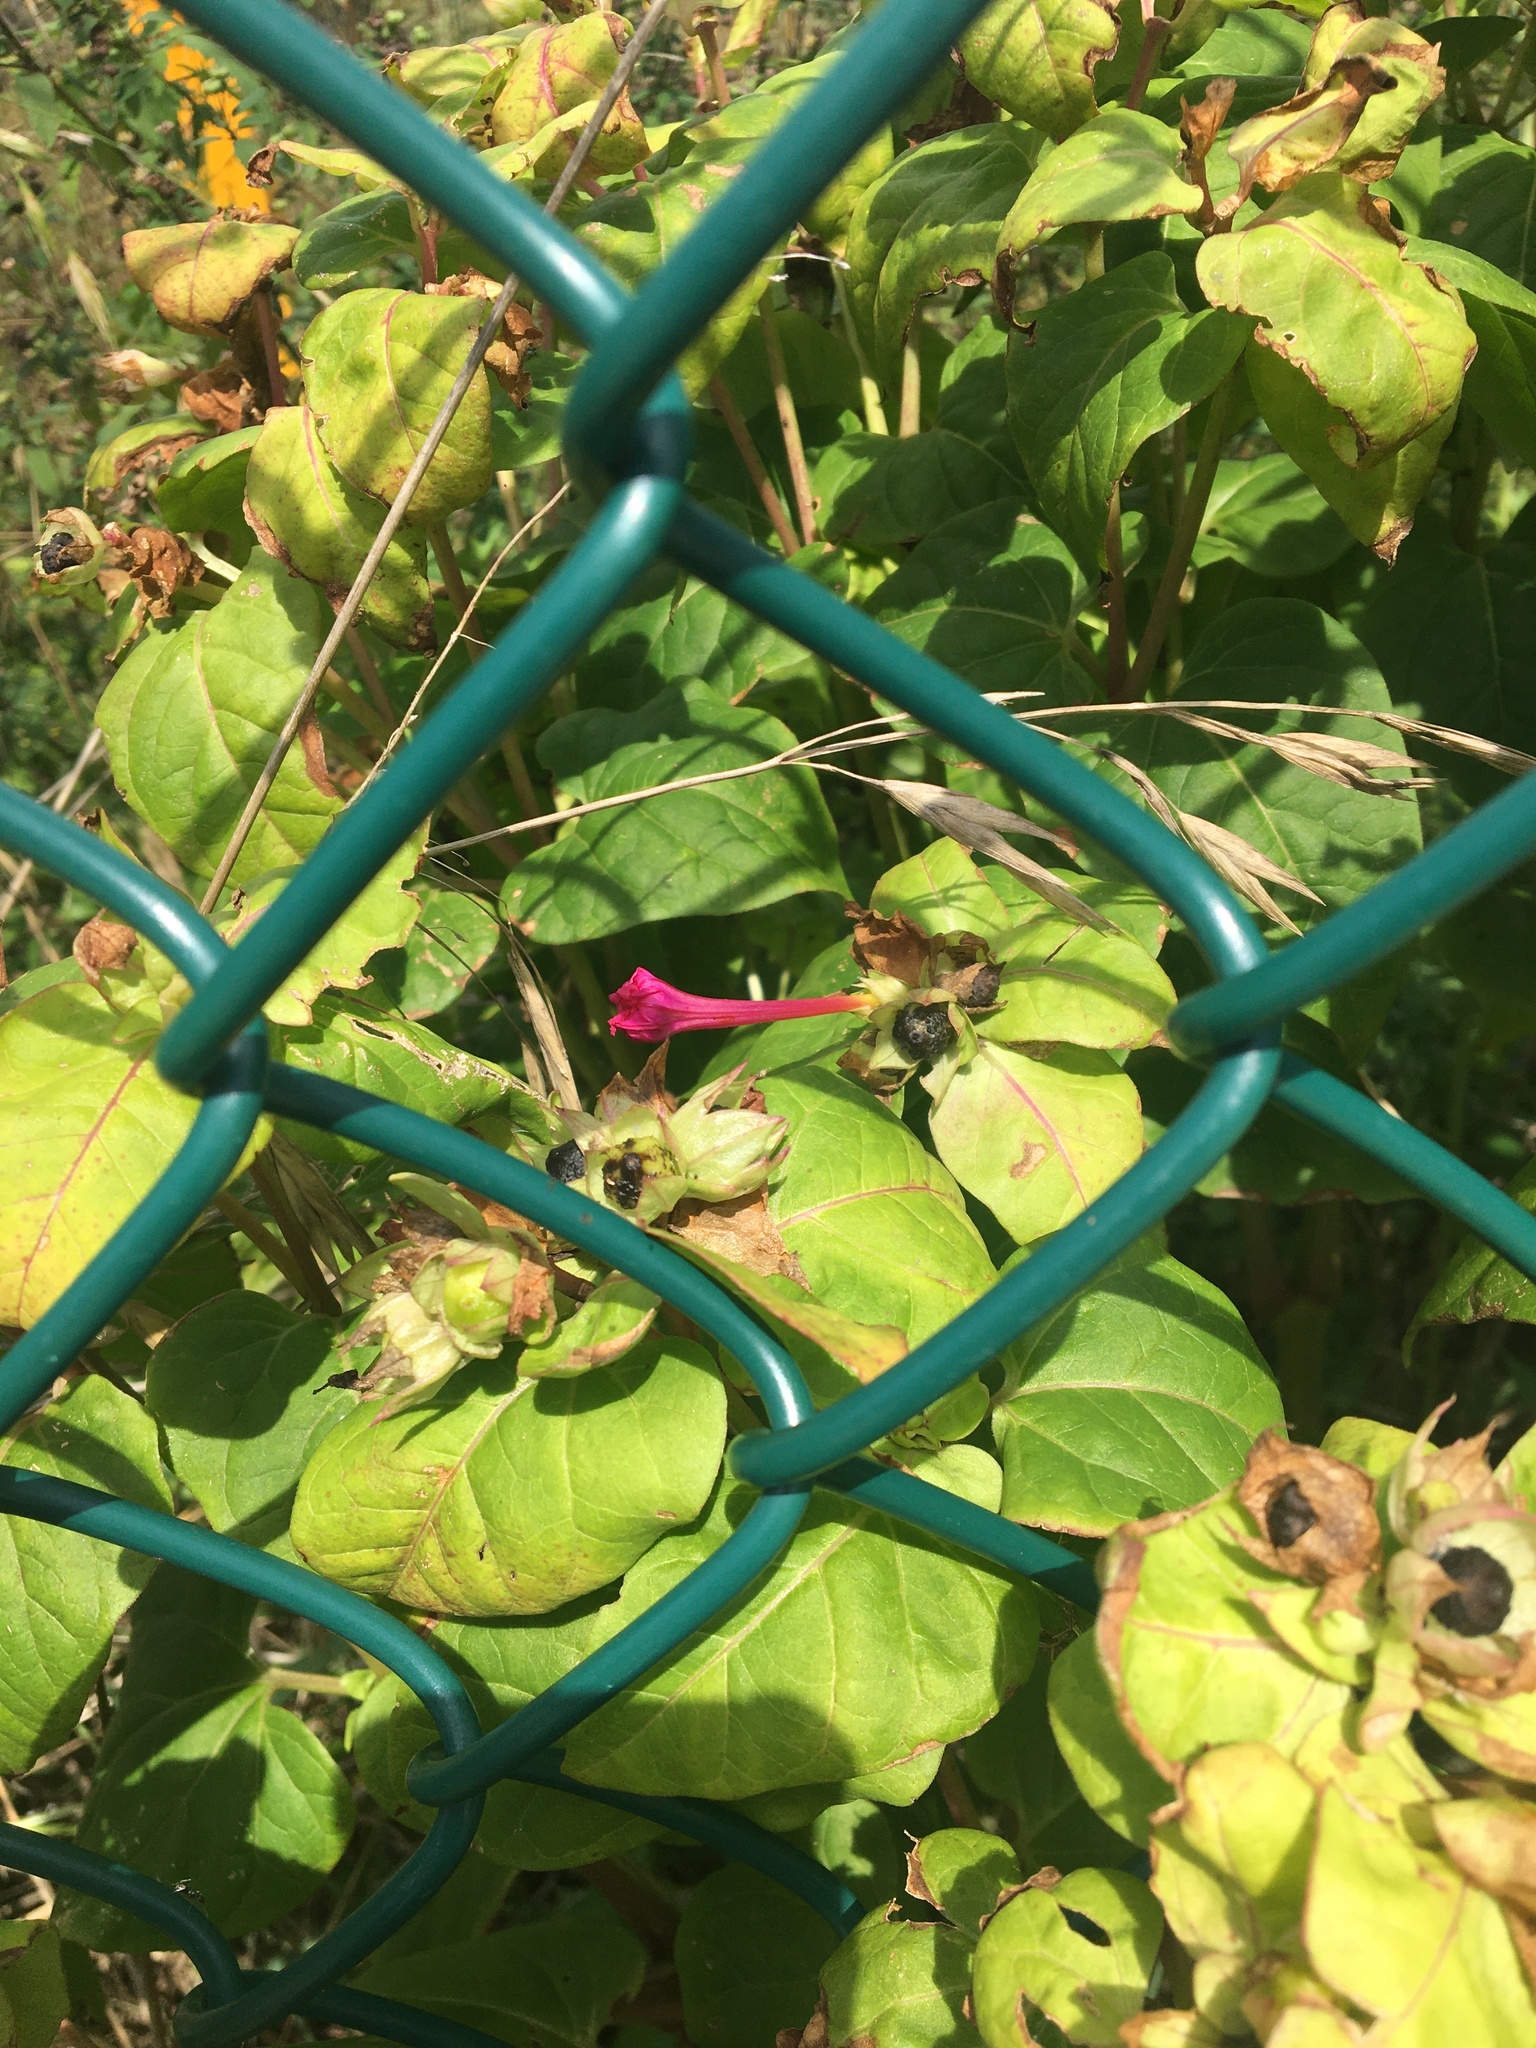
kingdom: Plantae
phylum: Tracheophyta
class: Magnoliopsida
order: Caryophyllales
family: Nyctaginaceae
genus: Mirabilis
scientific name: Mirabilis jalapa
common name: Marvel-of-peru
